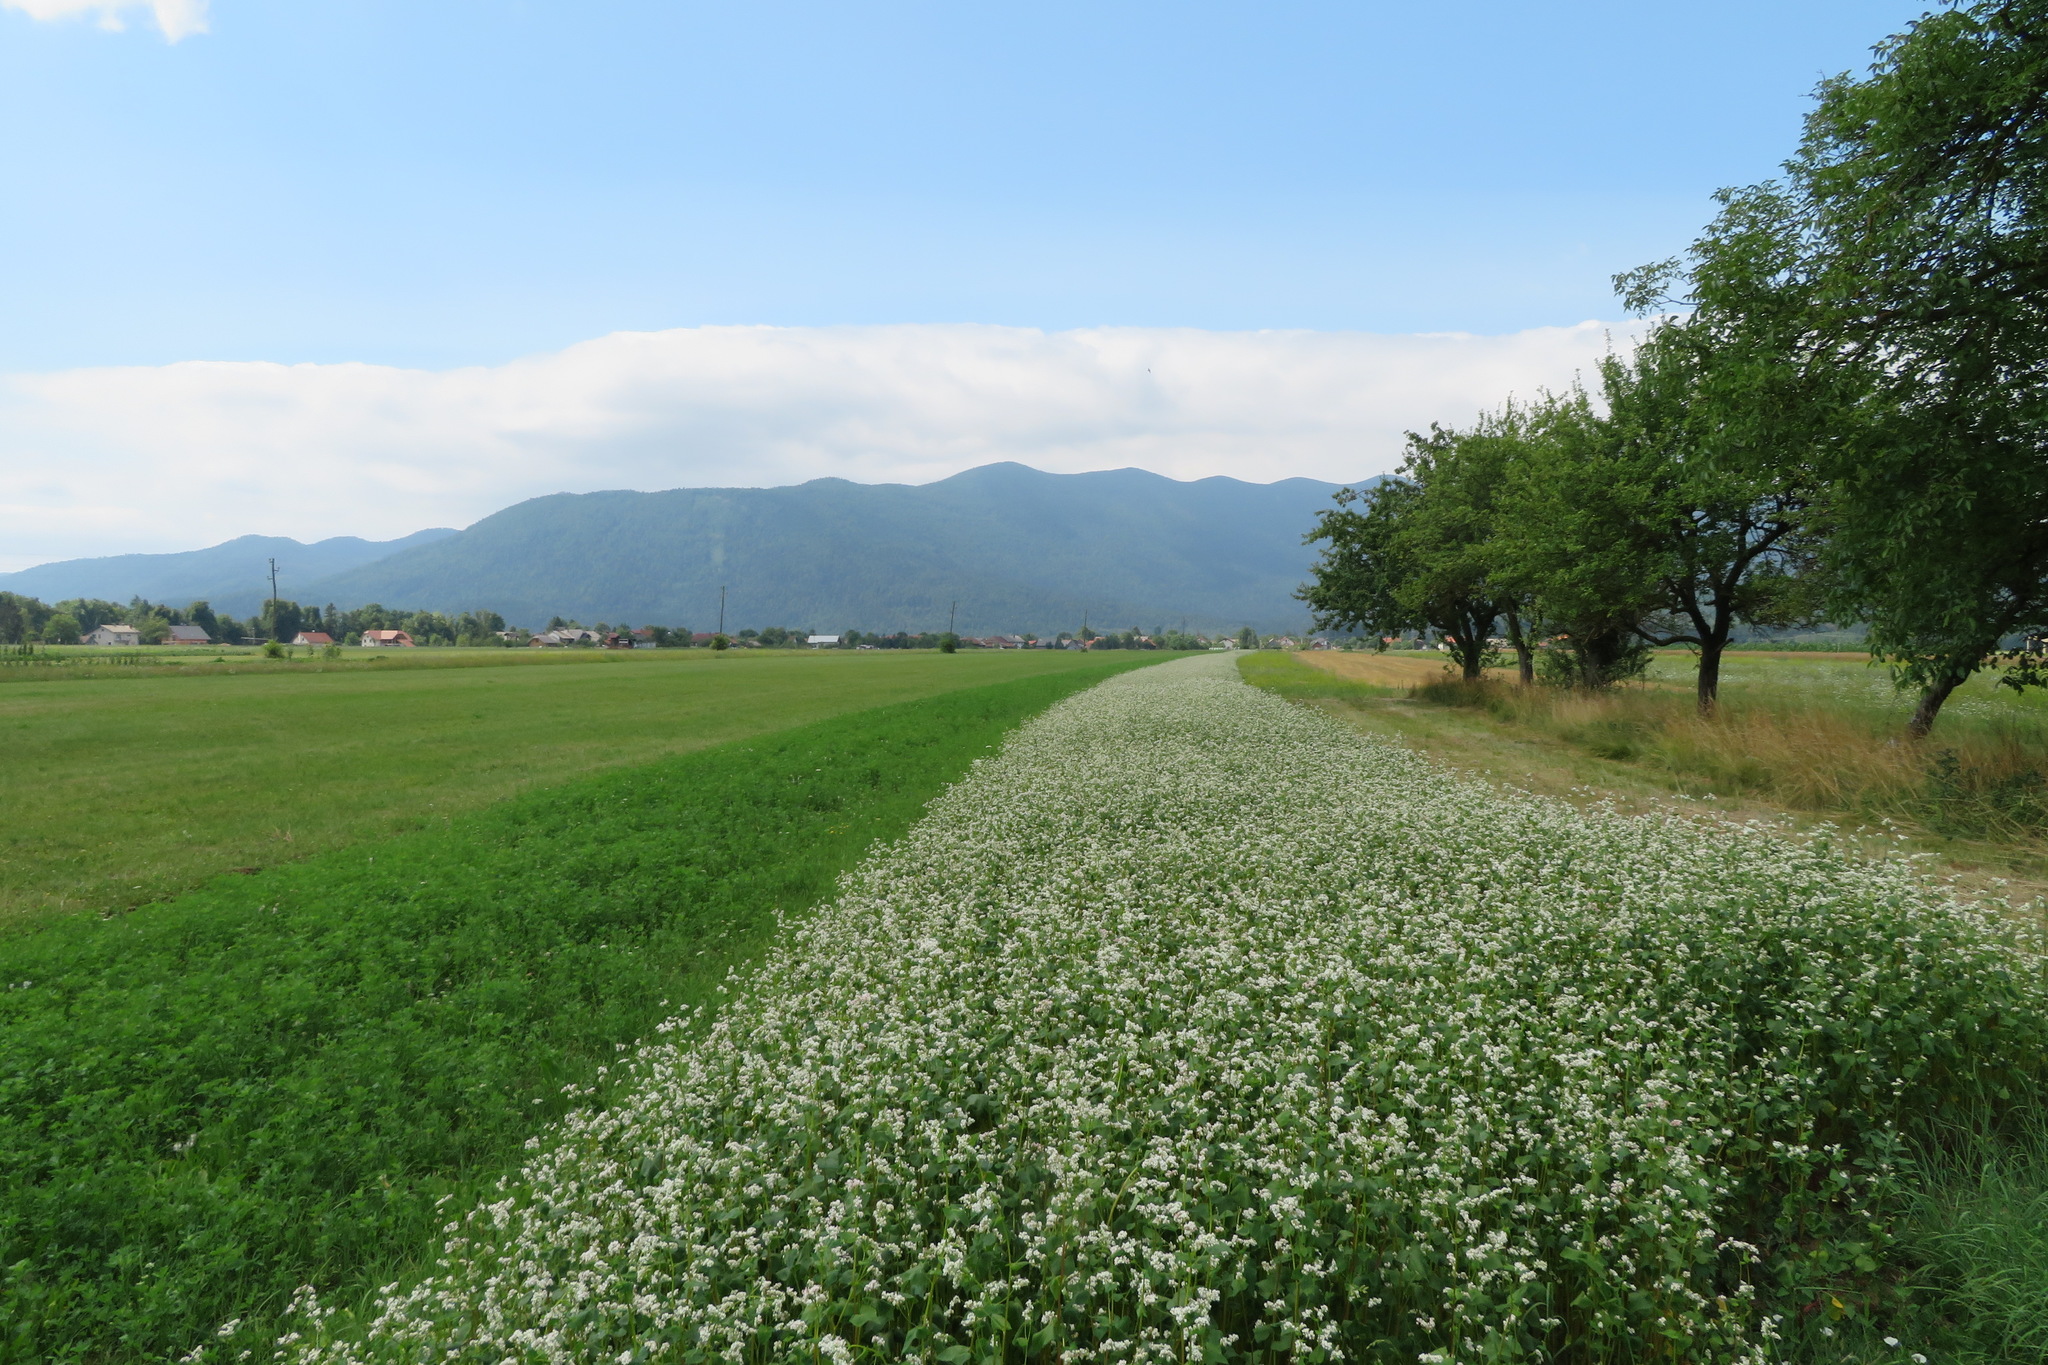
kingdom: Plantae
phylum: Tracheophyta
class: Magnoliopsida
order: Caryophyllales
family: Polygonaceae
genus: Fagopyrum
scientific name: Fagopyrum esculentum
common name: Buckwheat
